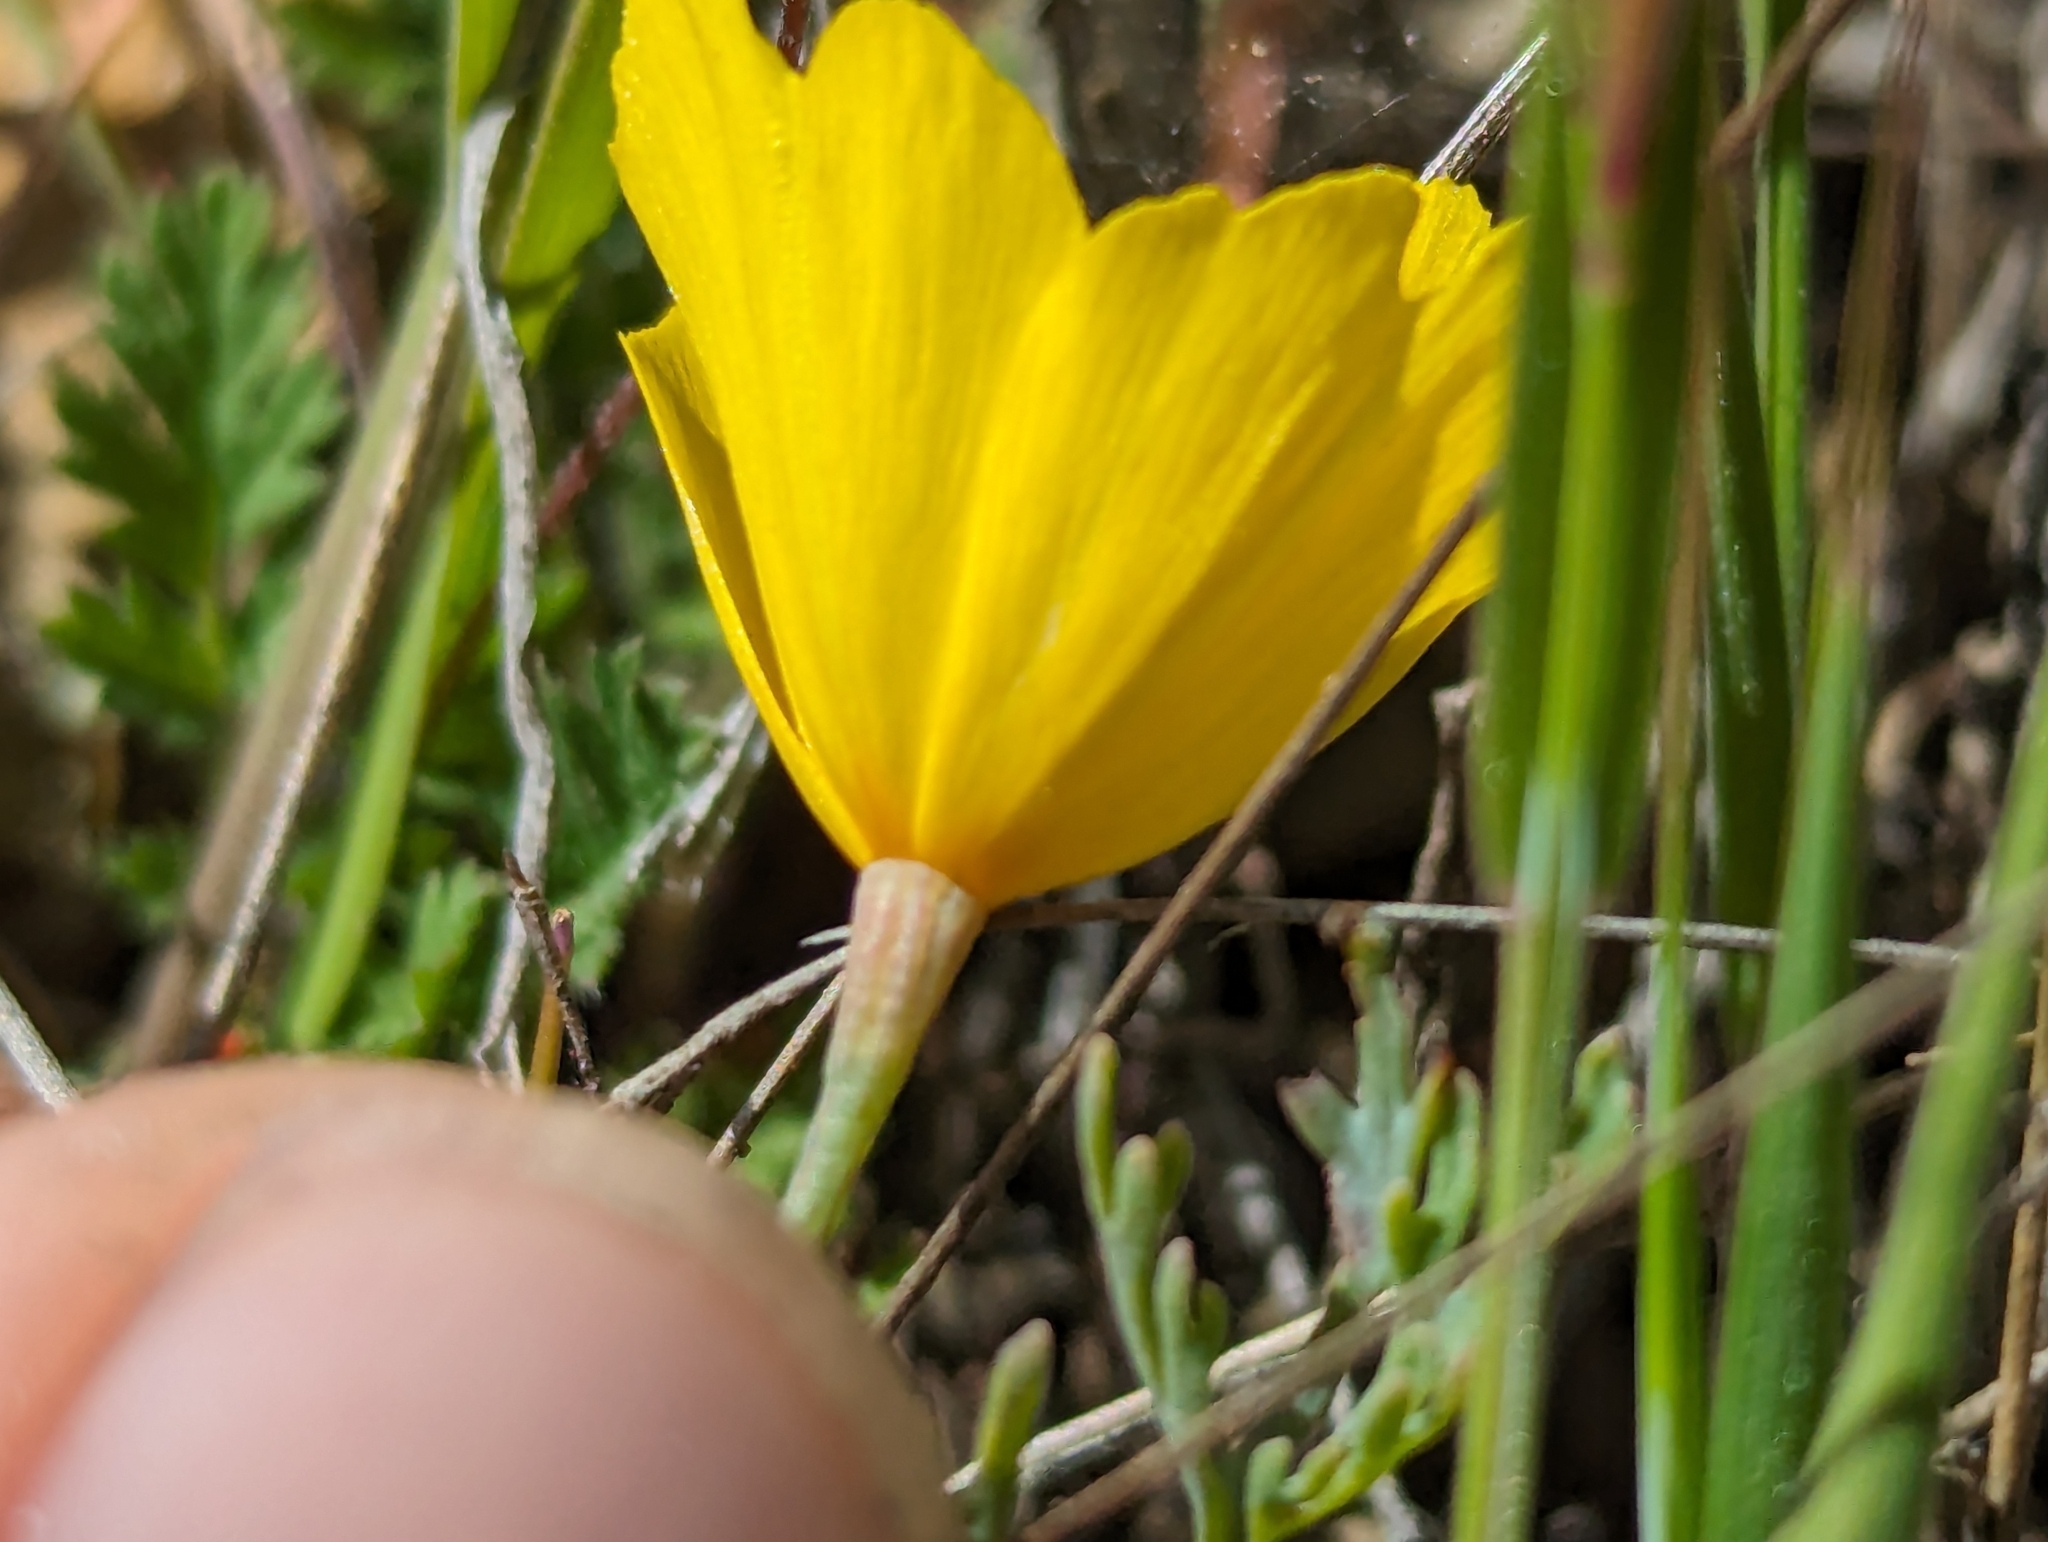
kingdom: Plantae
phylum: Tracheophyta
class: Magnoliopsida
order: Ranunculales
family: Papaveraceae
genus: Eschscholzia
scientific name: Eschscholzia hypecoides
